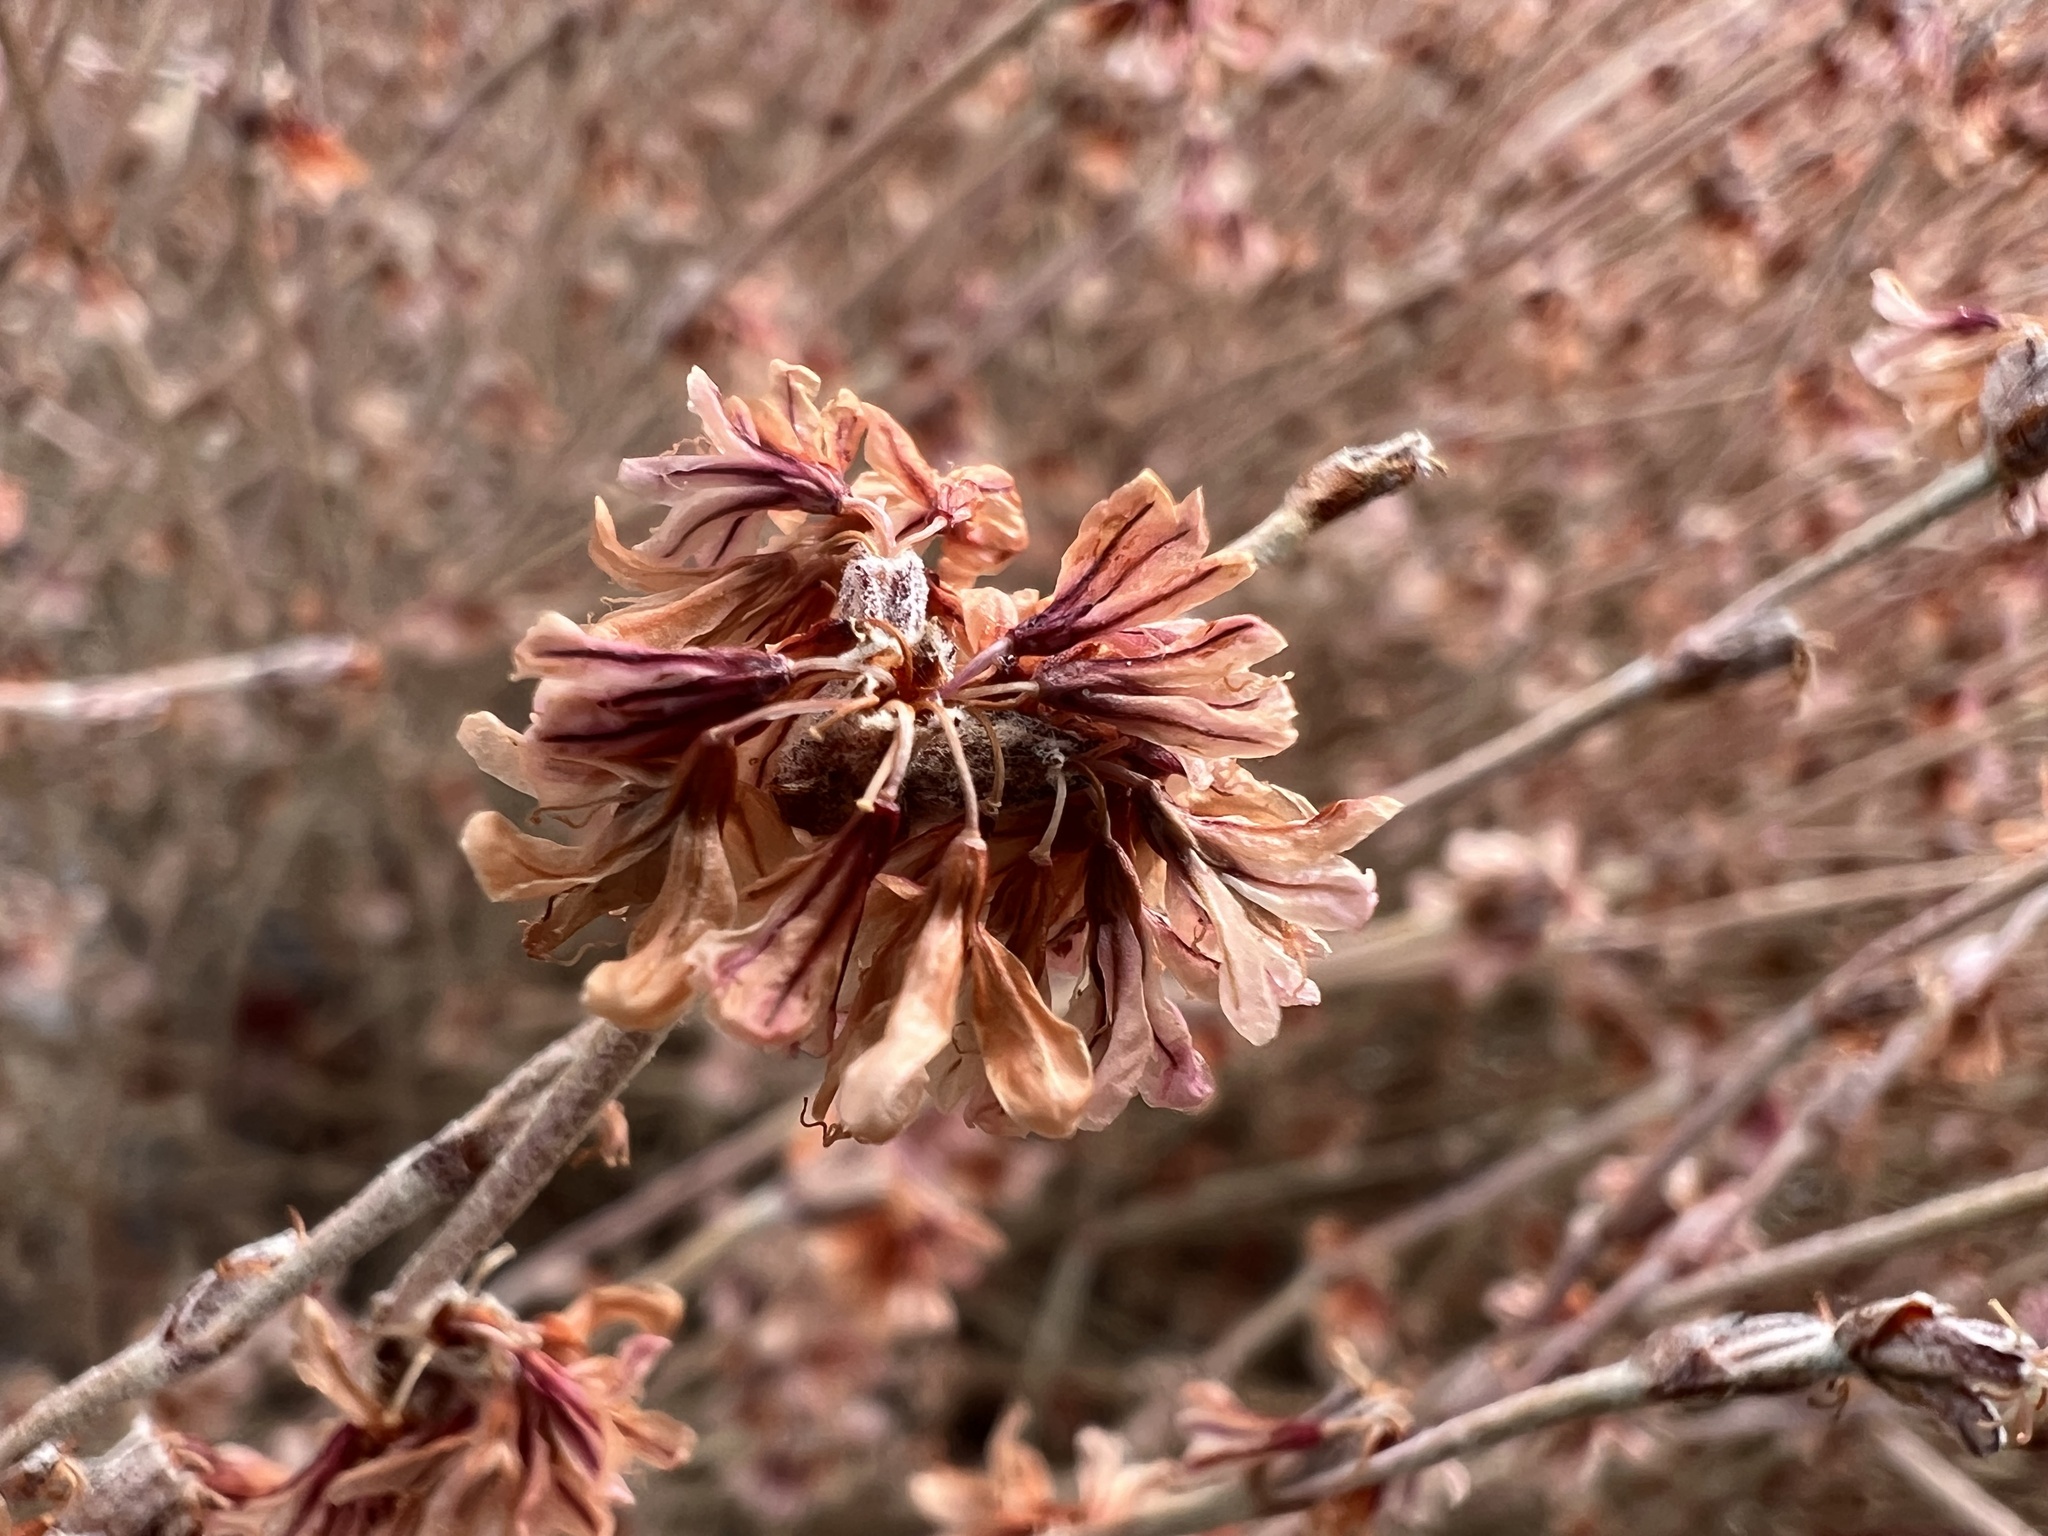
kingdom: Plantae
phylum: Tracheophyta
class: Magnoliopsida
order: Caryophyllales
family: Polygonaceae
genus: Eriogonum
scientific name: Eriogonum panamintense
